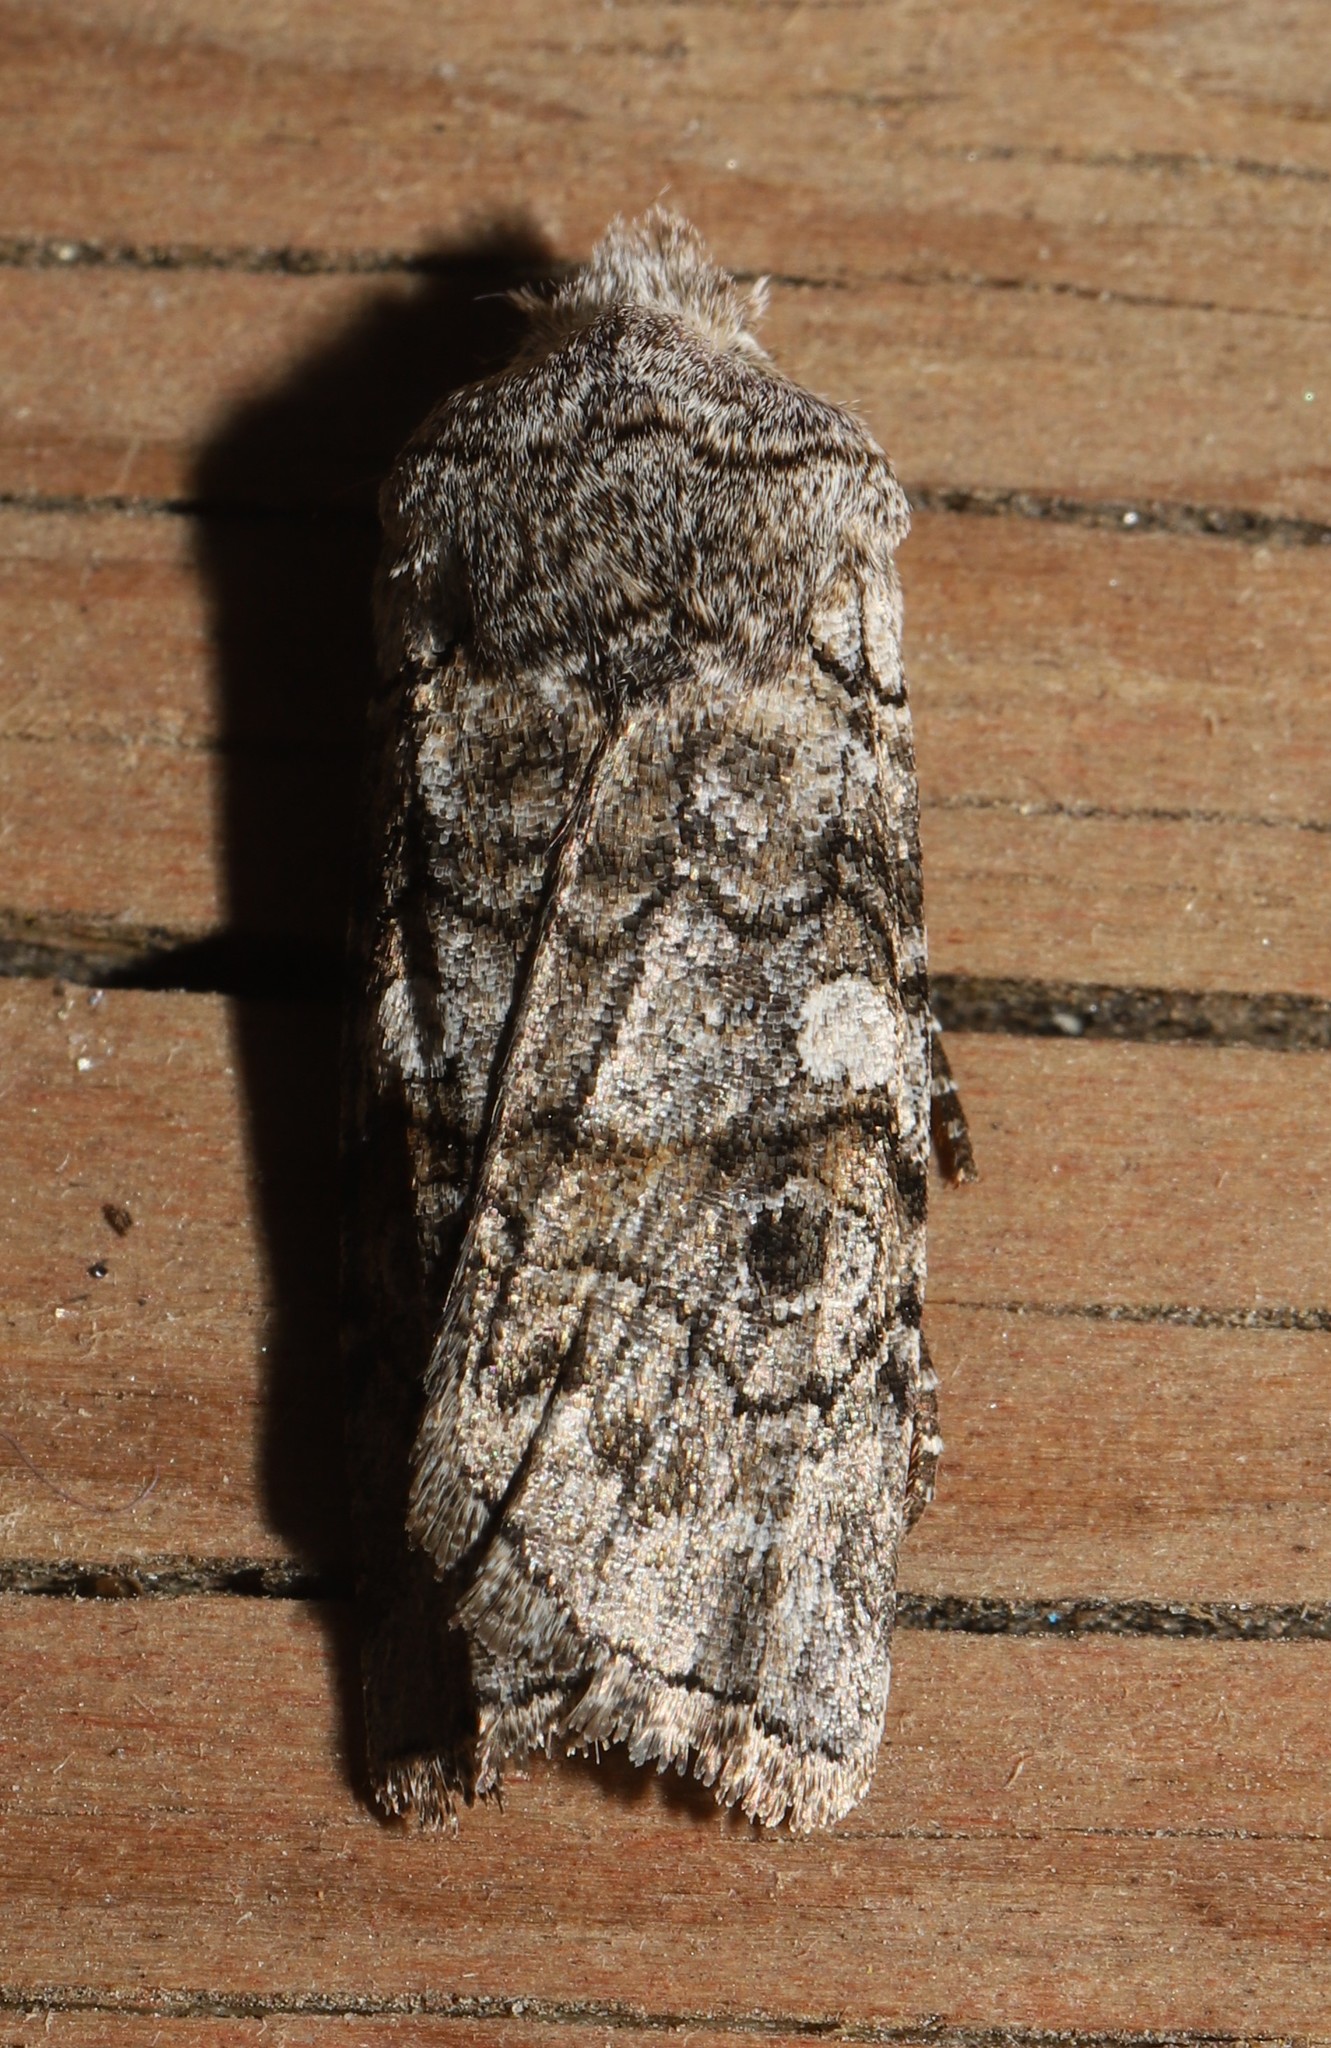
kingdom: Animalia
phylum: Arthropoda
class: Insecta
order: Lepidoptera
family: Noctuidae
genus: Litholomia
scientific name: Litholomia napaea
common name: False pinion moth
